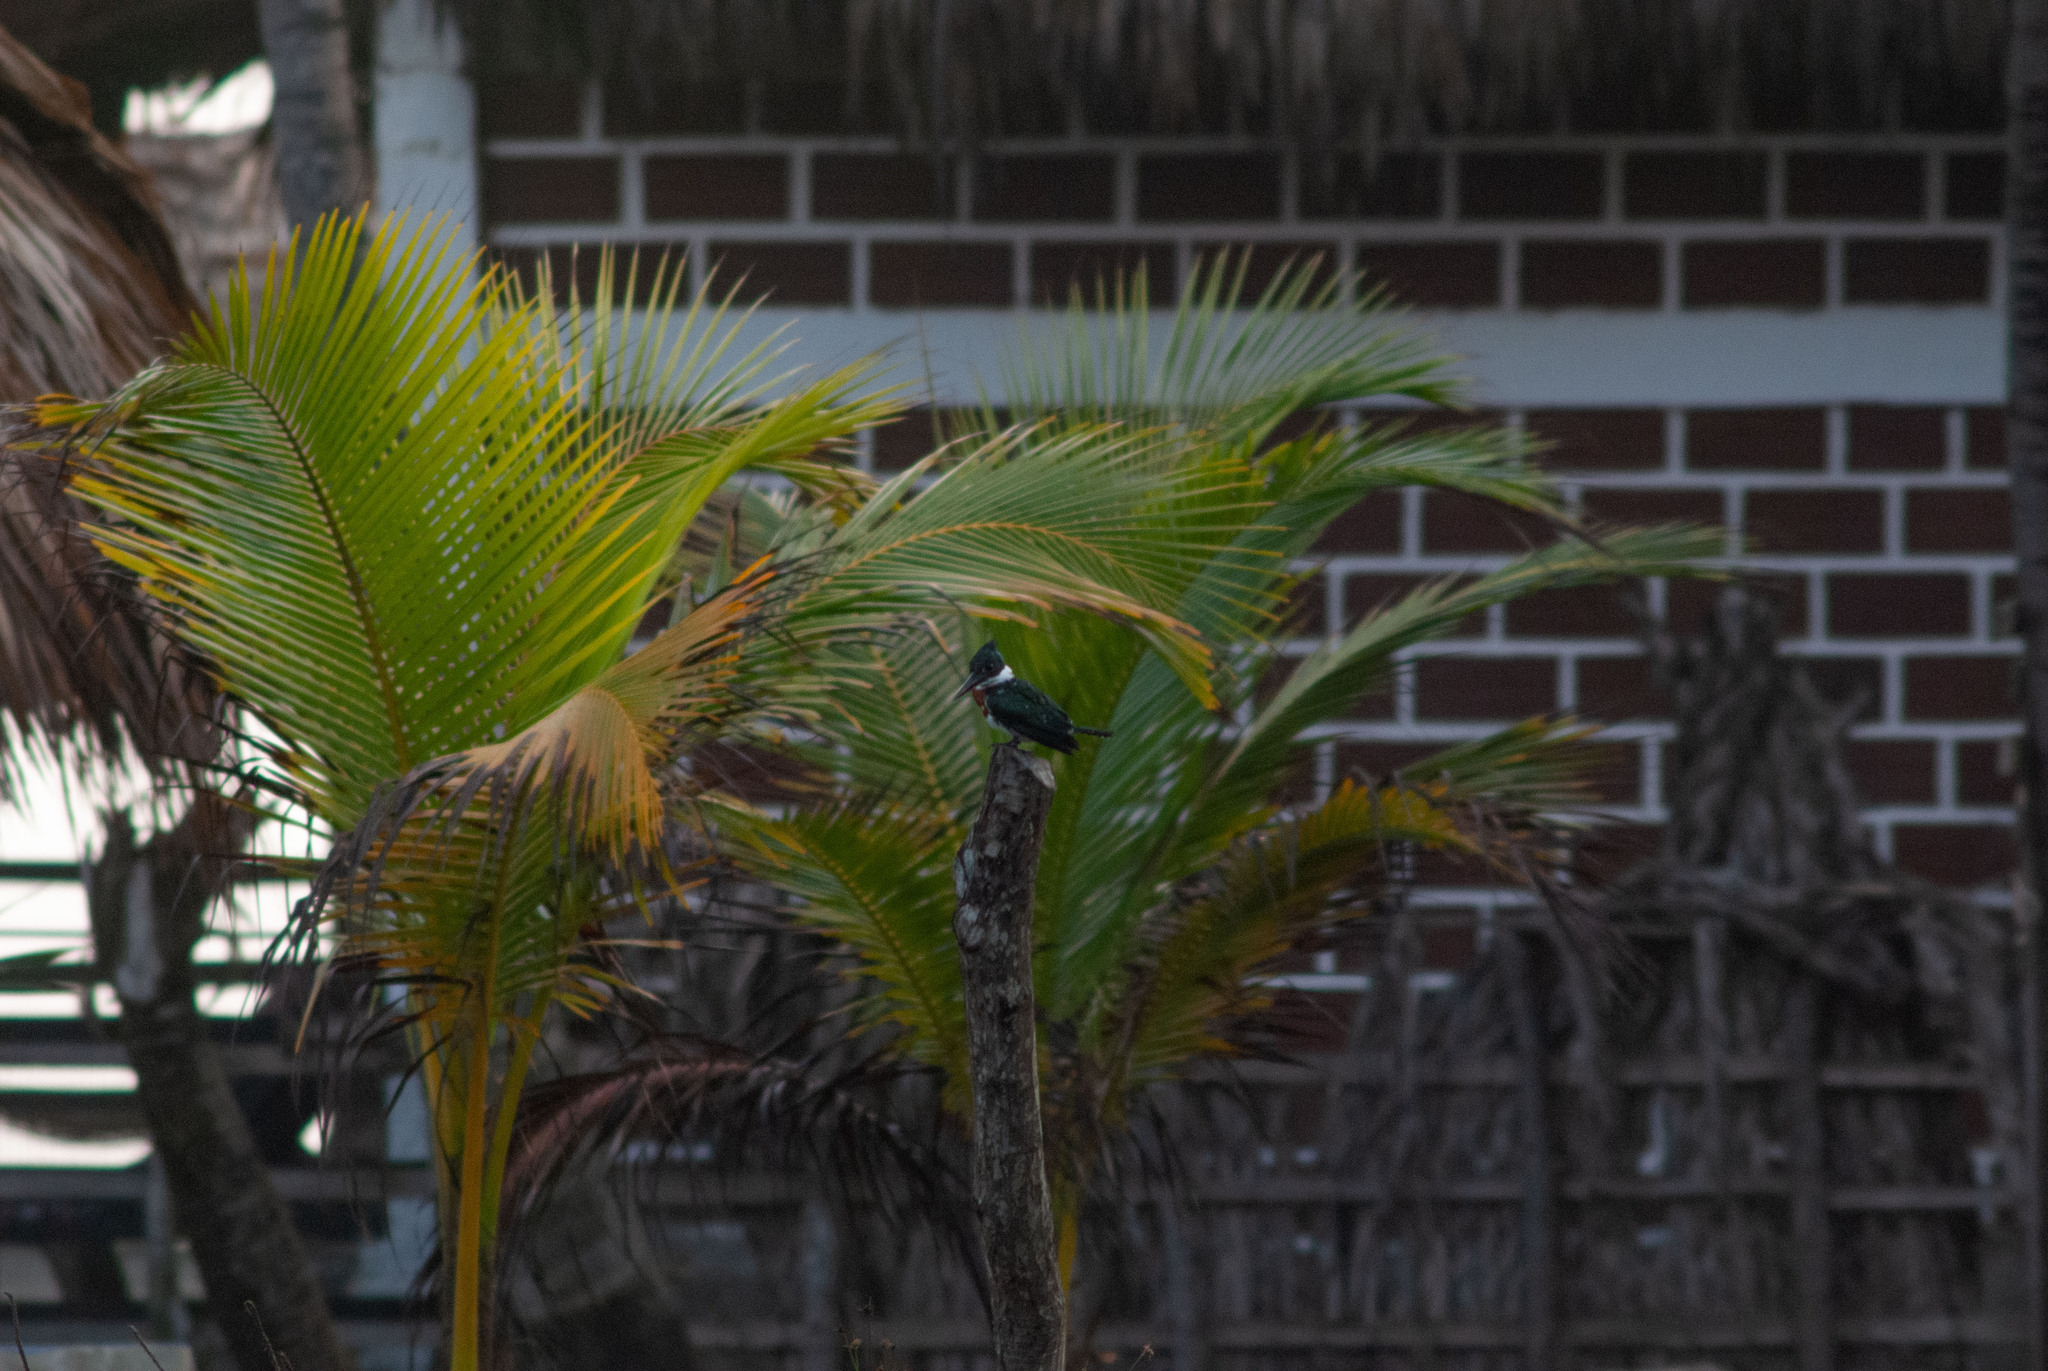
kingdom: Animalia
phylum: Chordata
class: Aves
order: Coraciiformes
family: Alcedinidae
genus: Chloroceryle
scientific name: Chloroceryle amazona
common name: Amazon kingfisher
